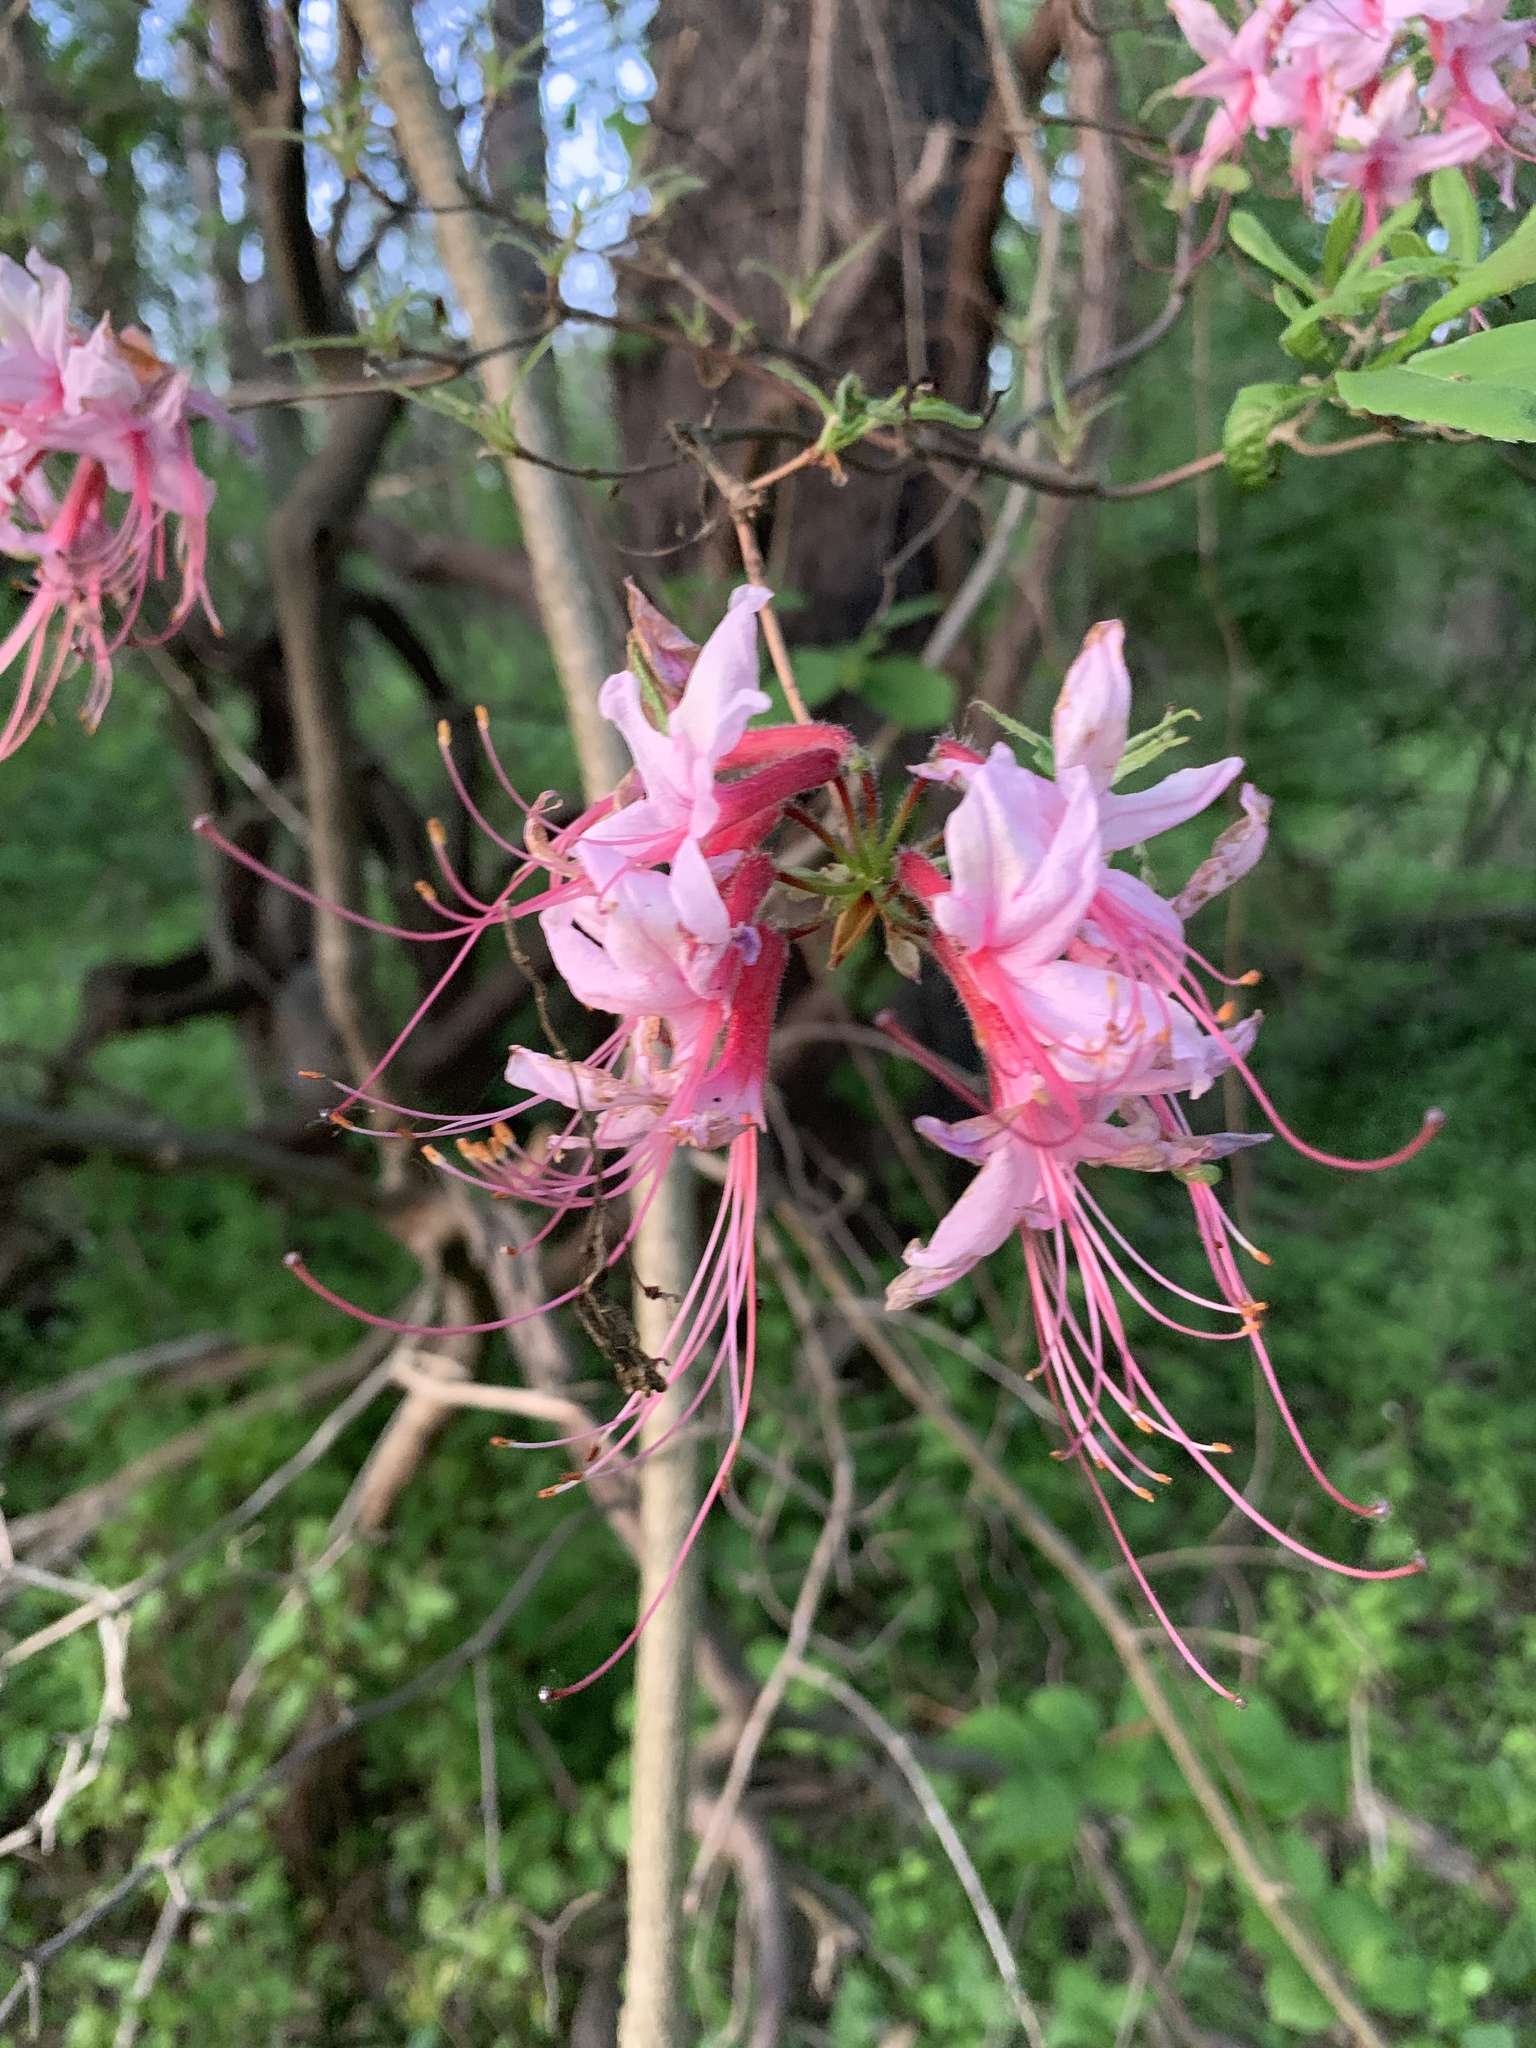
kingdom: Plantae
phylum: Tracheophyta
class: Magnoliopsida
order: Ericales
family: Ericaceae
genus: Rhododendron
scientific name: Rhododendron periclymenoides
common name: Election-pink
